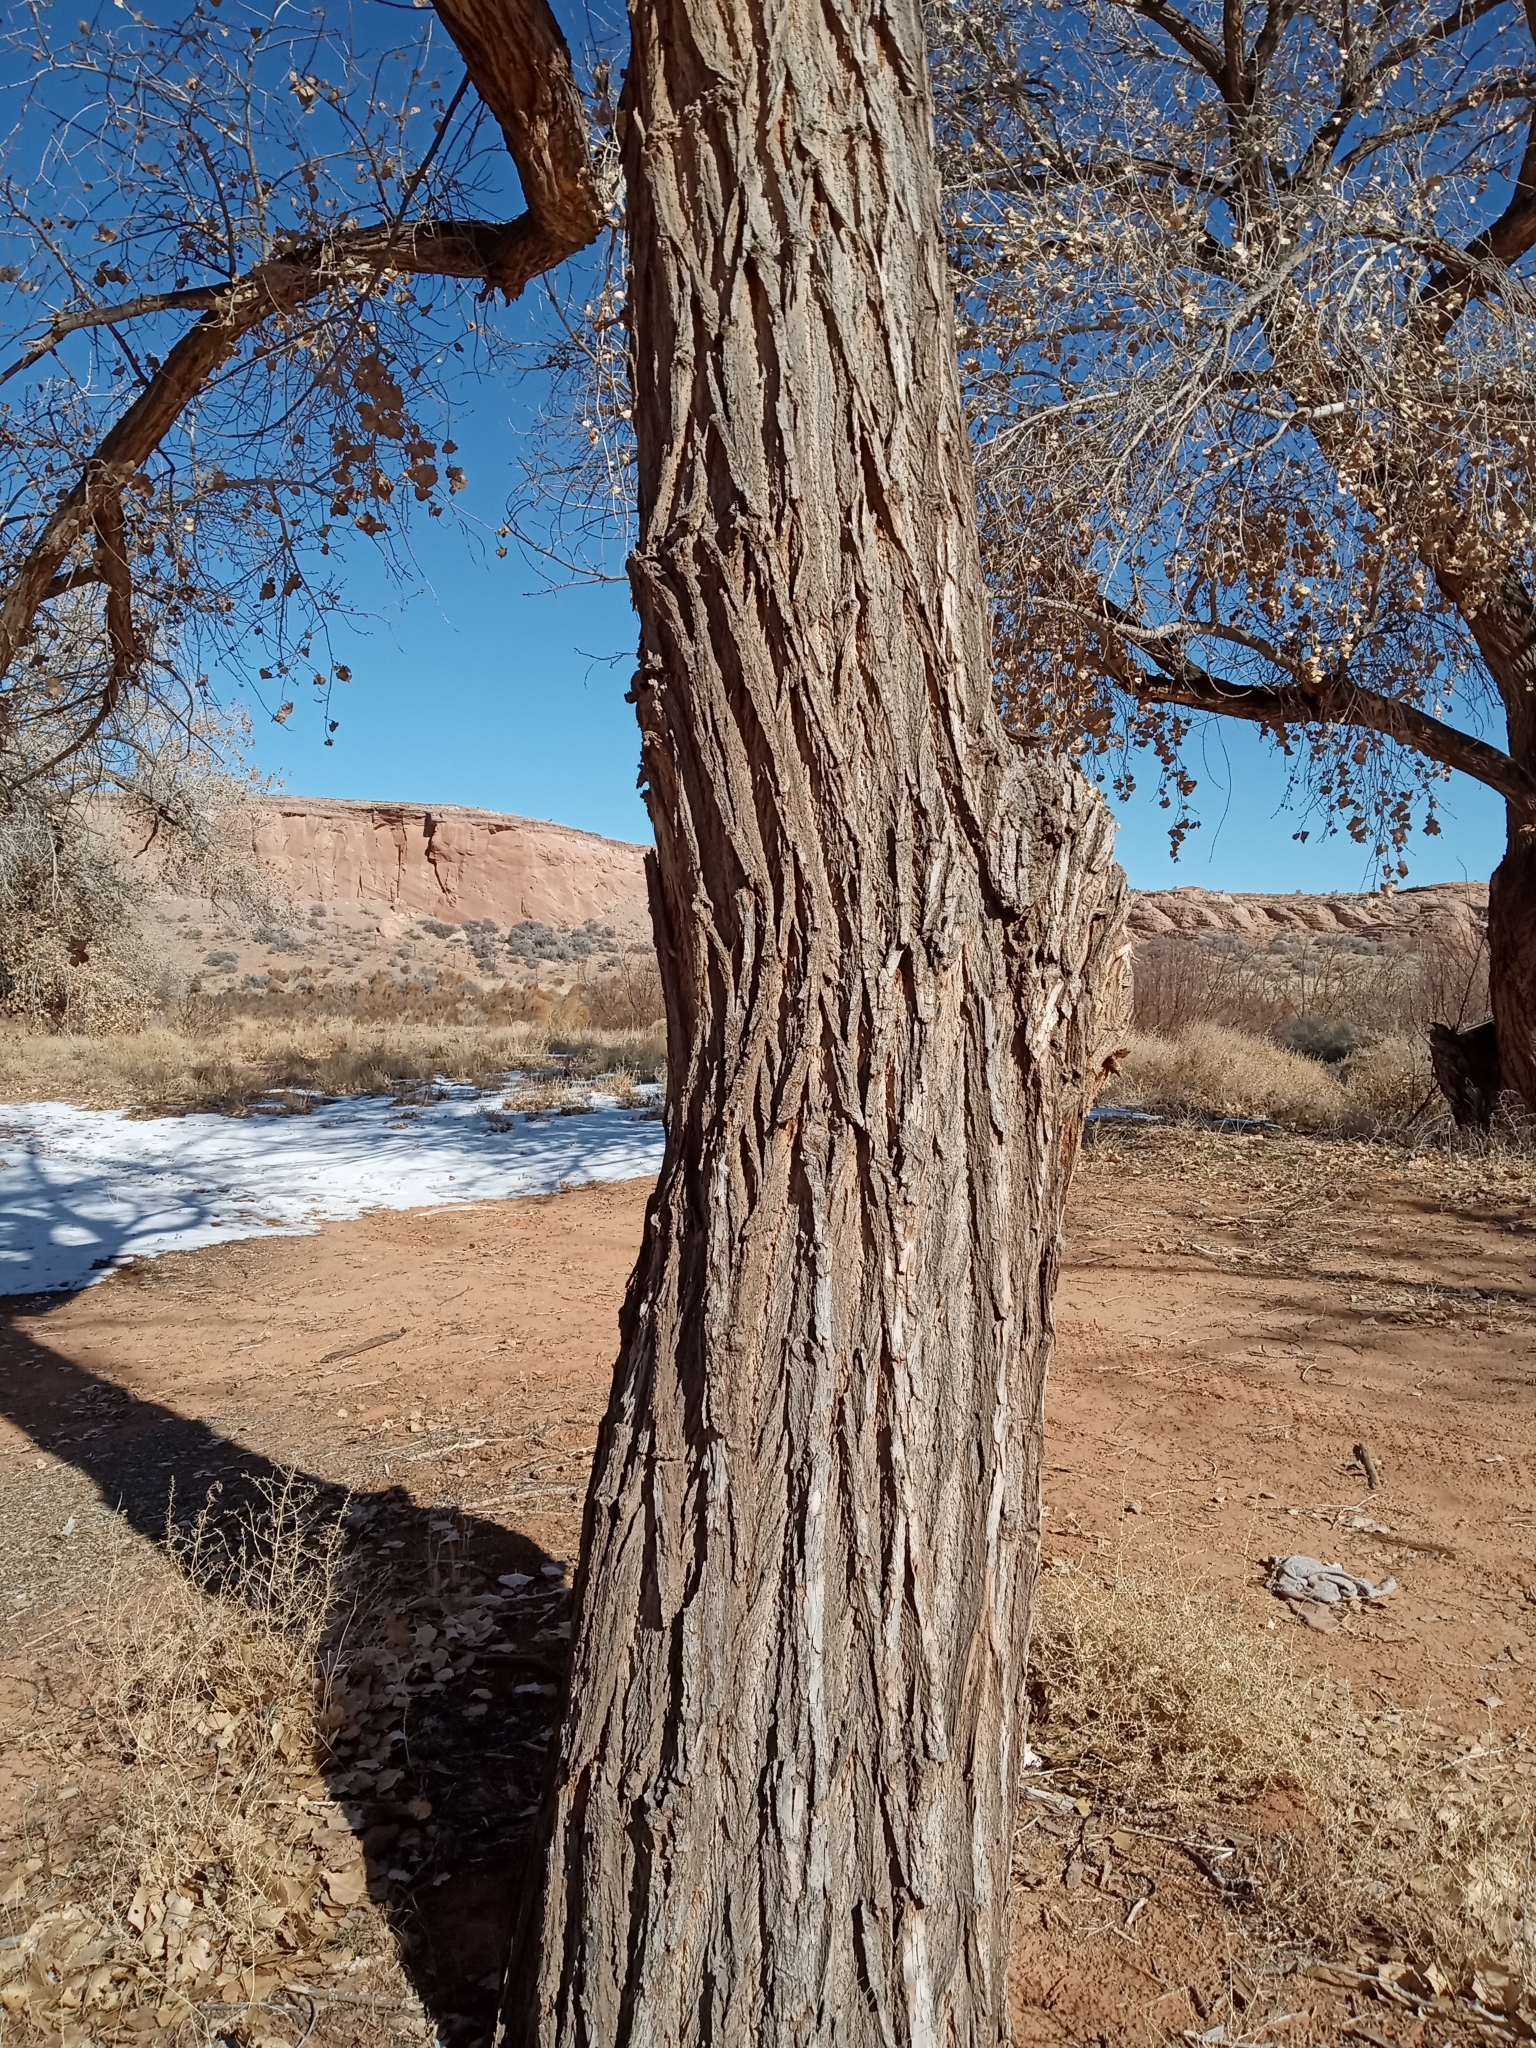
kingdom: Plantae
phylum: Tracheophyta
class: Magnoliopsida
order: Malpighiales
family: Salicaceae
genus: Populus
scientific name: Populus fremontii
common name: Fremont's cottonwood
